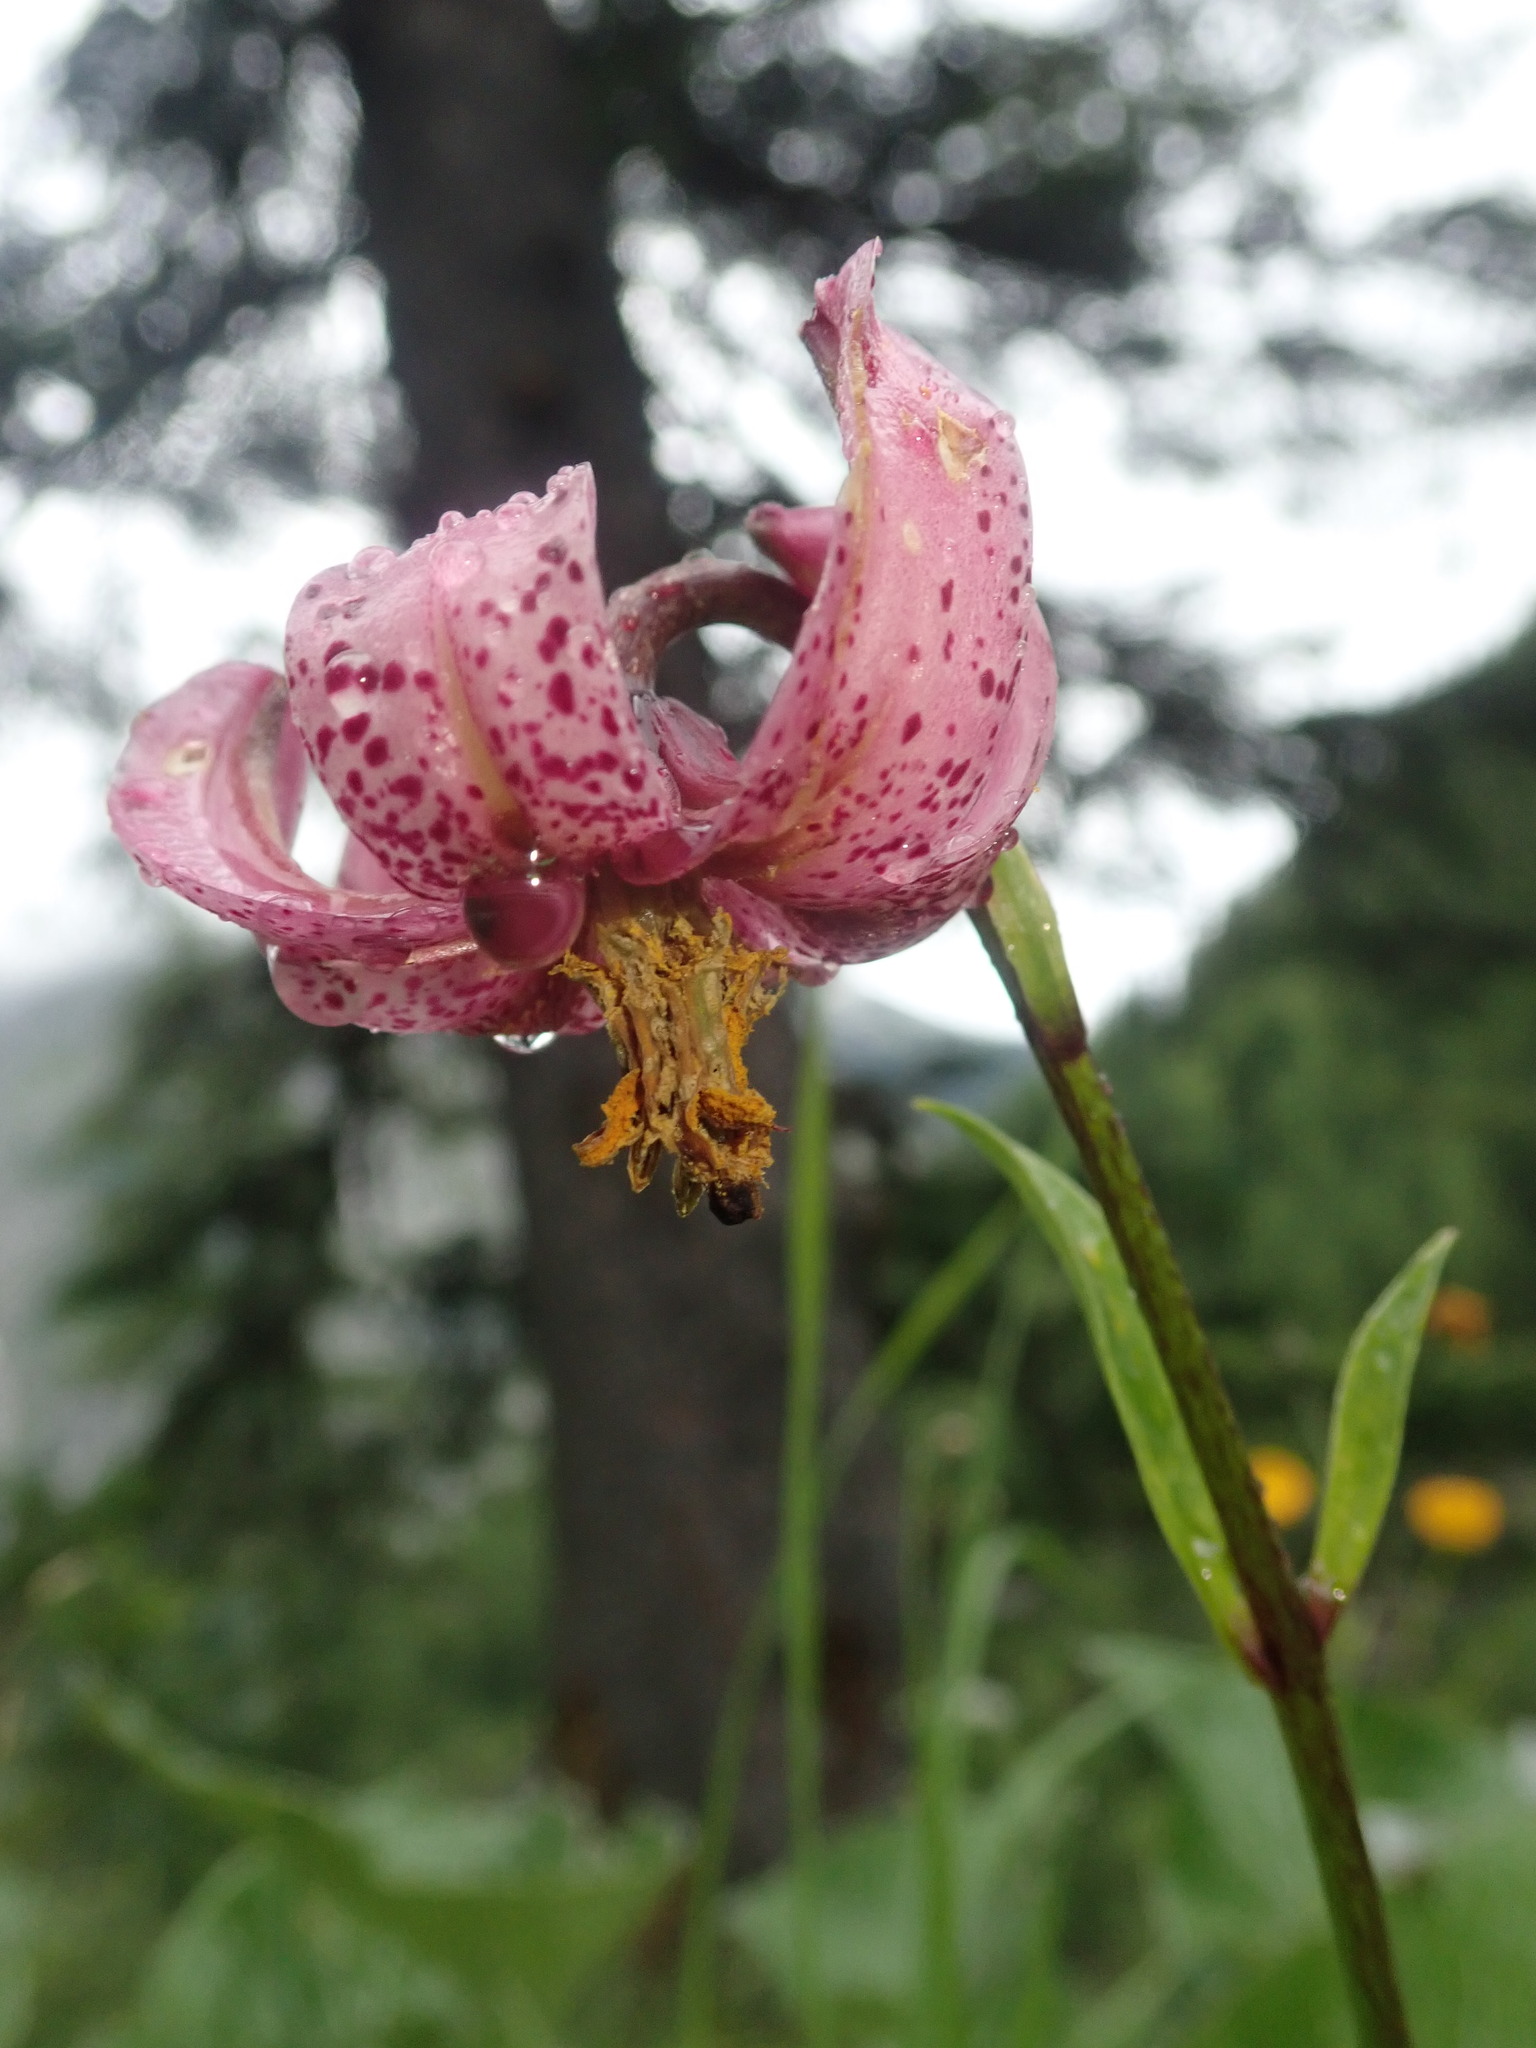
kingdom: Plantae
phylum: Tracheophyta
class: Liliopsida
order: Liliales
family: Liliaceae
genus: Lilium
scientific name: Lilium martagon
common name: Martagon lily
